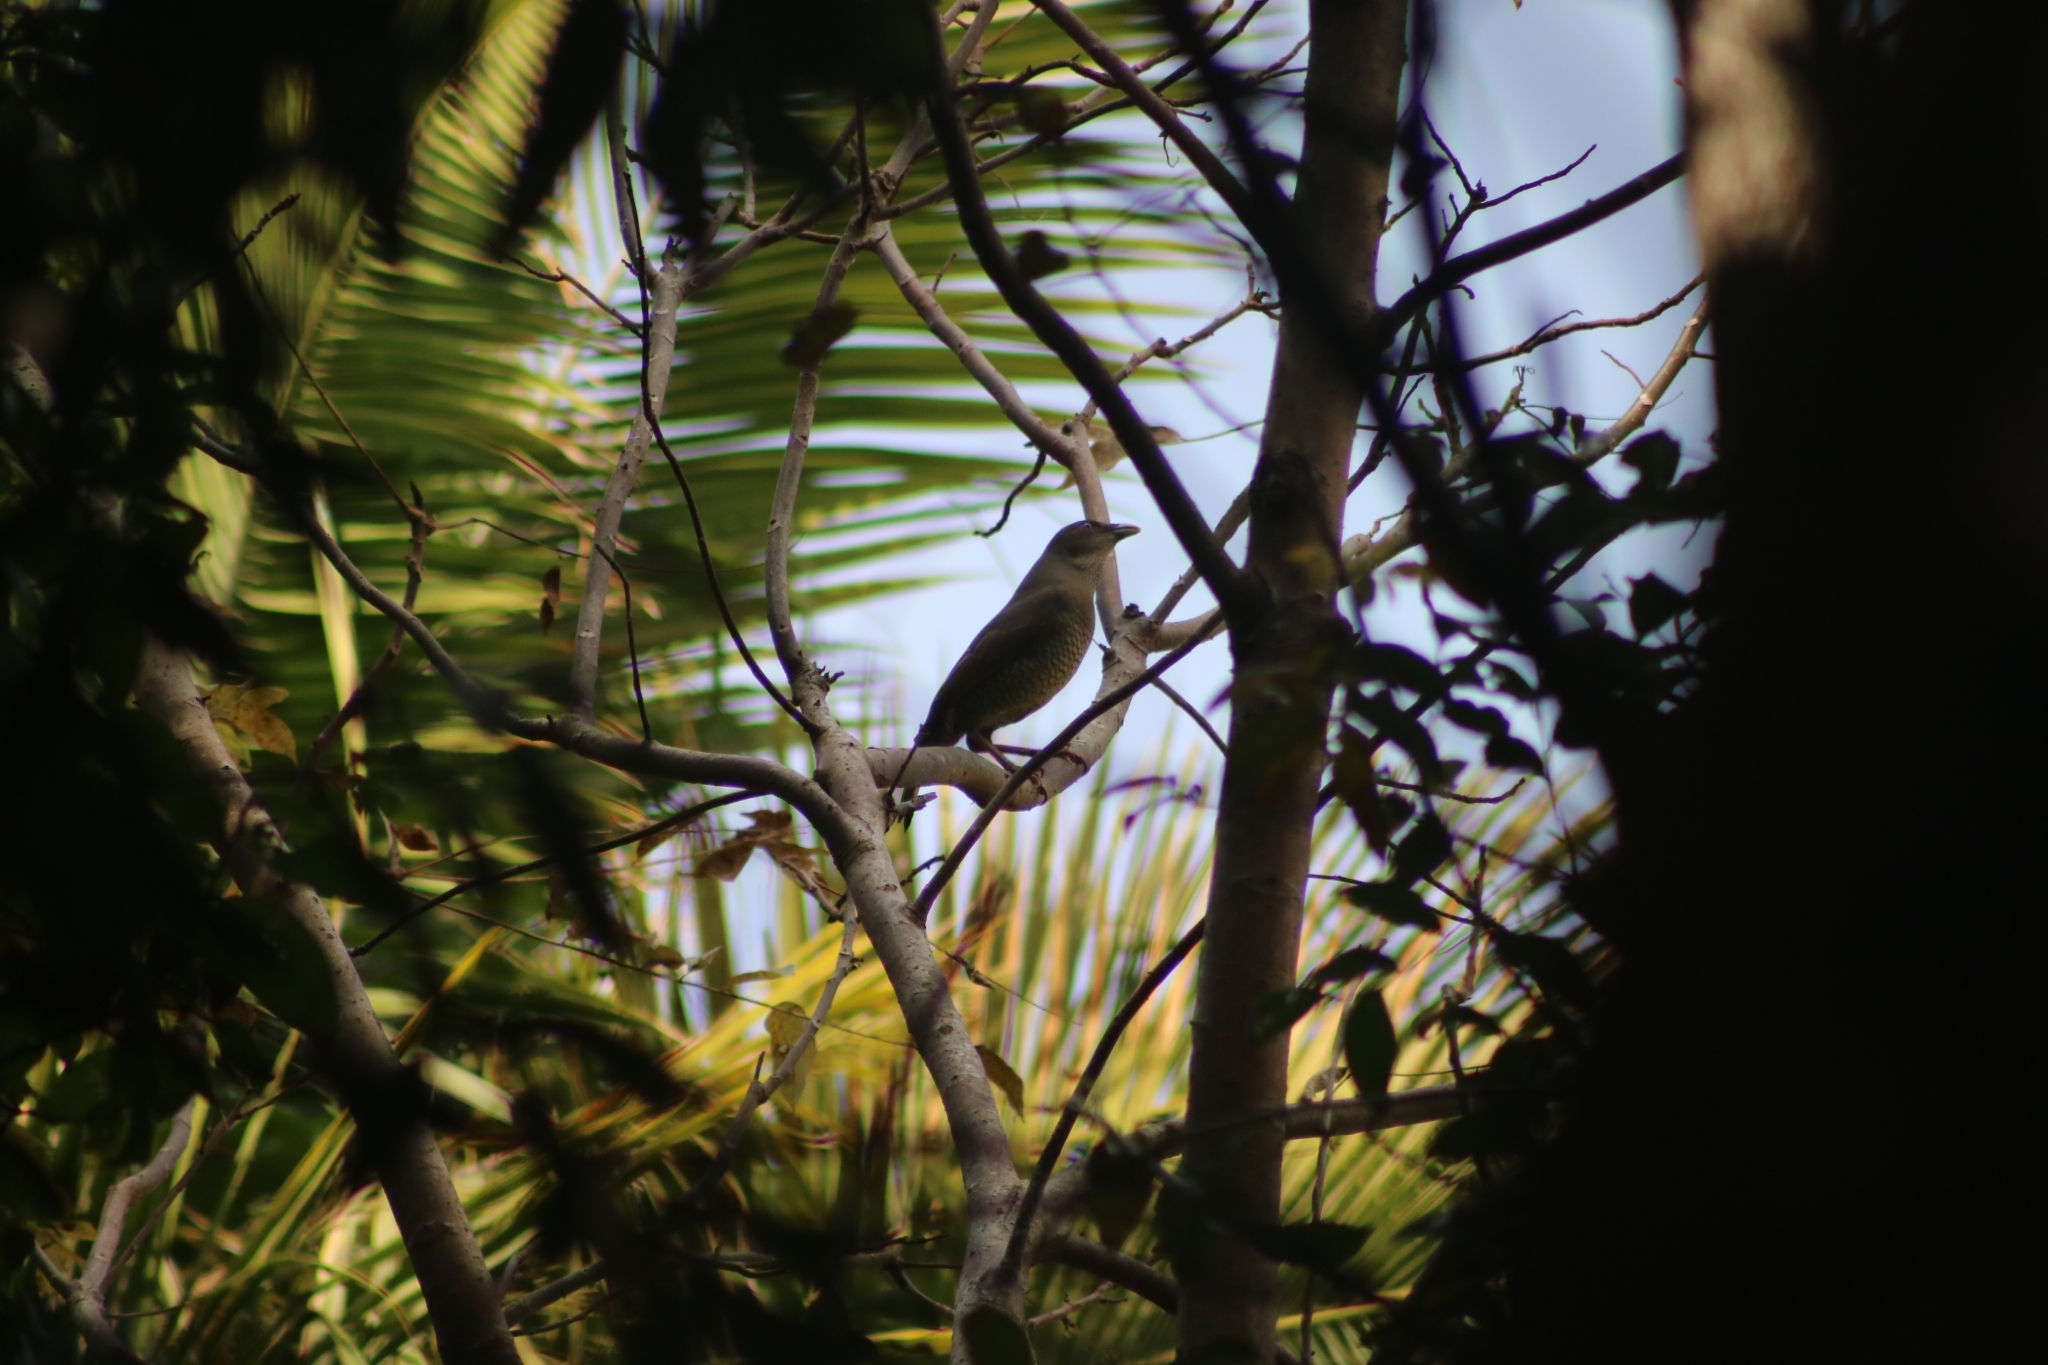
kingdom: Animalia
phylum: Chordata
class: Aves
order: Passeriformes
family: Ptilonorhynchidae
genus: Ptilonorhynchus
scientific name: Ptilonorhynchus violaceus
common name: Satin bowerbird
